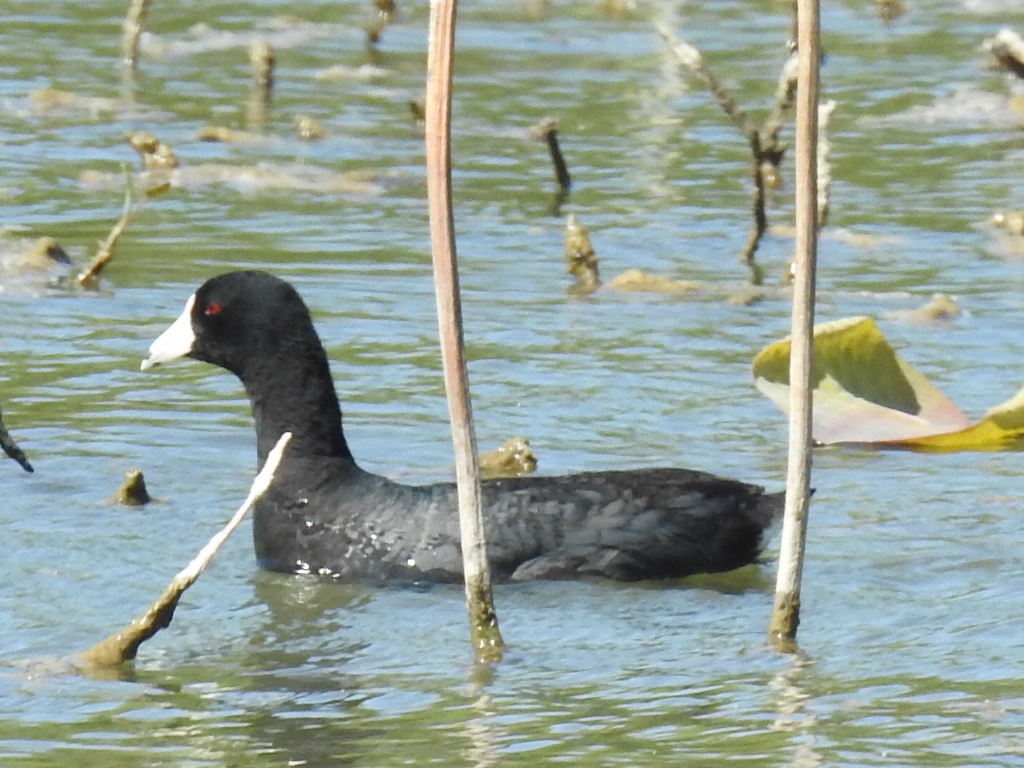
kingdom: Animalia
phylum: Chordata
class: Aves
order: Gruiformes
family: Rallidae
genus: Fulica
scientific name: Fulica americana
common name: American coot
